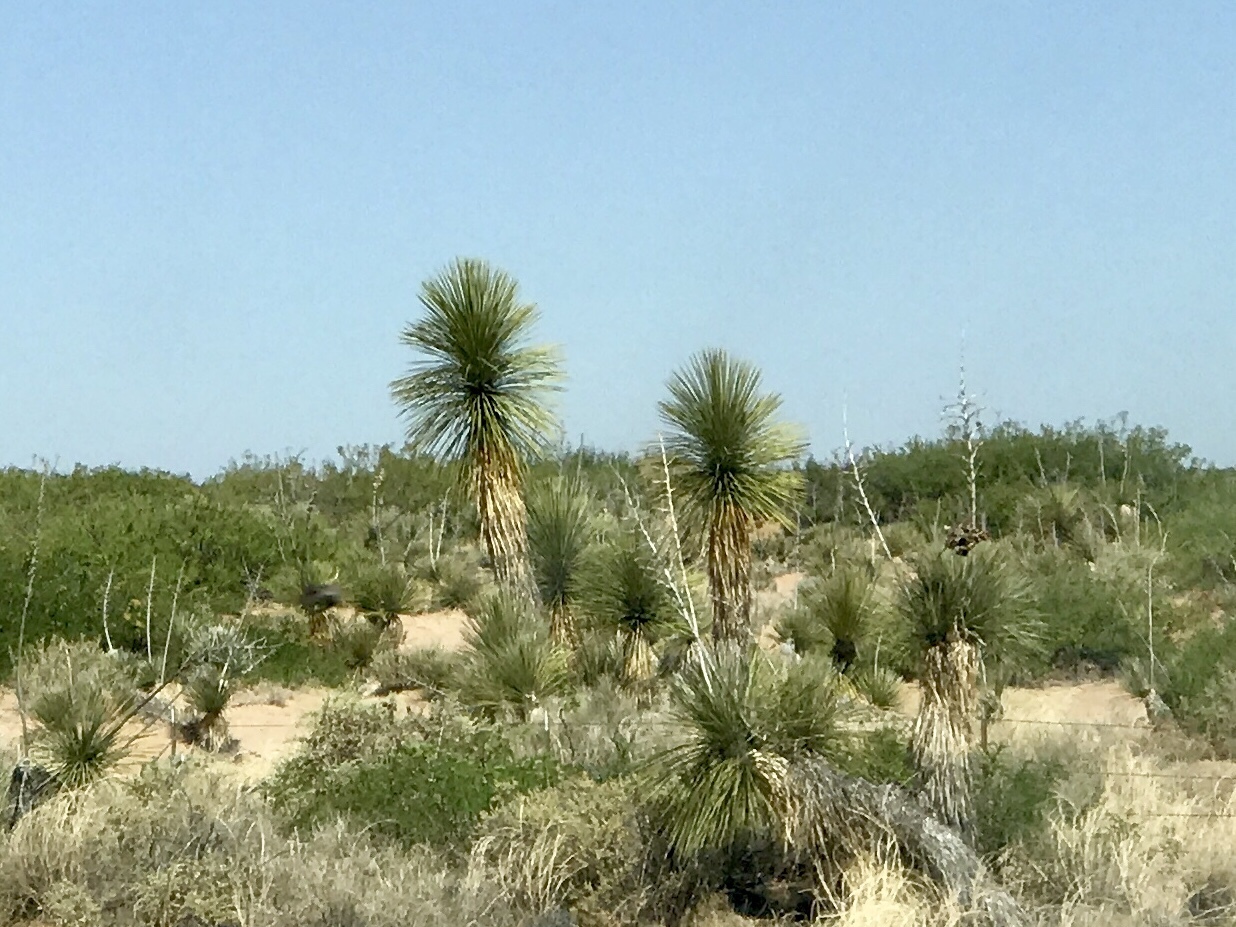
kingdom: Plantae
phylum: Tracheophyta
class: Liliopsida
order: Asparagales
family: Asparagaceae
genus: Yucca
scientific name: Yucca elata
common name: Palmella
